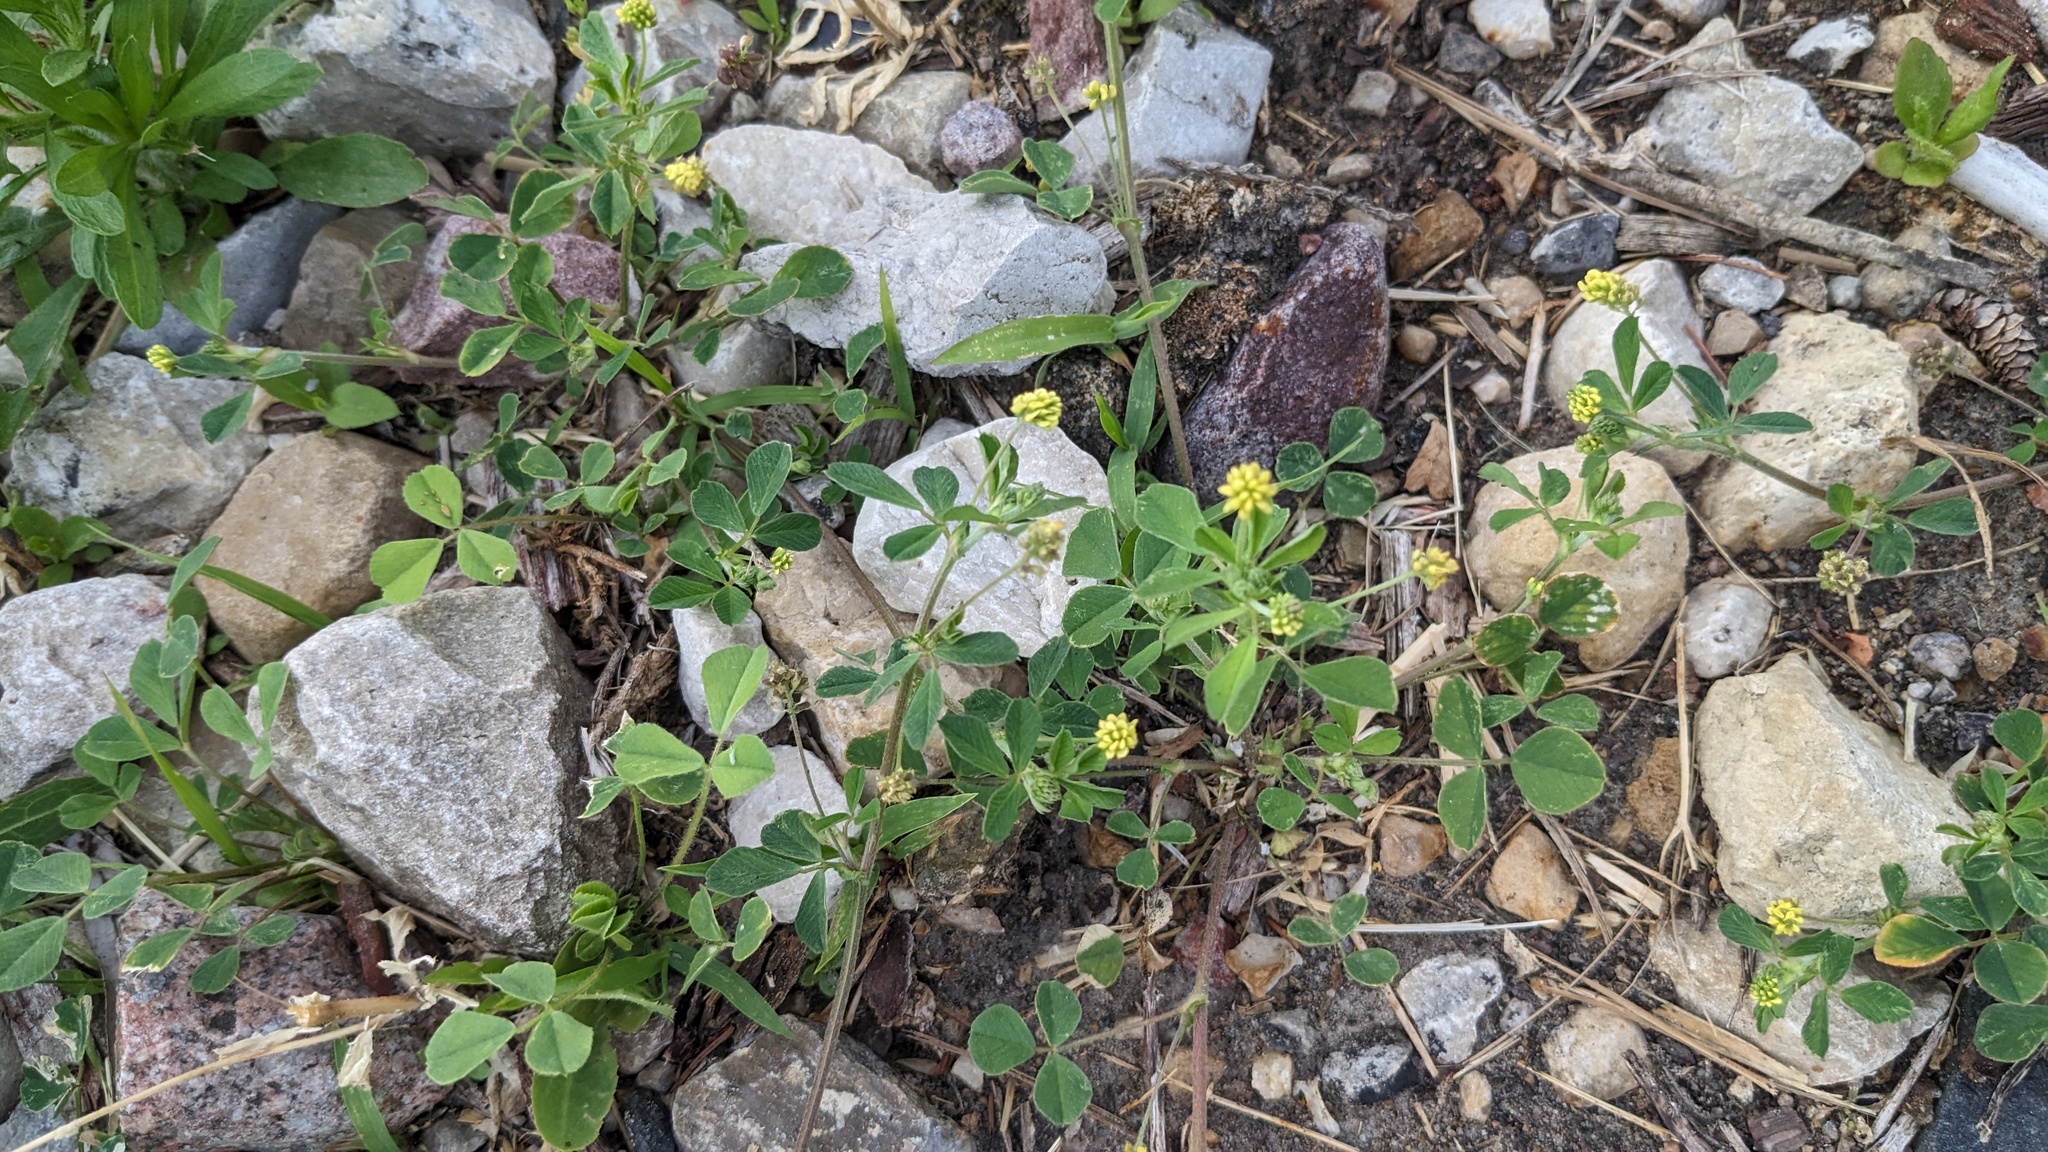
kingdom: Plantae
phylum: Tracheophyta
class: Magnoliopsida
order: Fabales
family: Fabaceae
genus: Medicago
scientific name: Medicago lupulina
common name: Black medick
